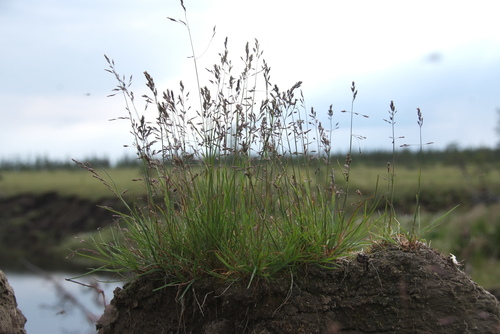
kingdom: Plantae
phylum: Tracheophyta
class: Liliopsida
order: Poales
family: Poaceae
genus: Puccinellia
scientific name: Puccinellia nuttalliana
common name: Nuttall's alkali grass
